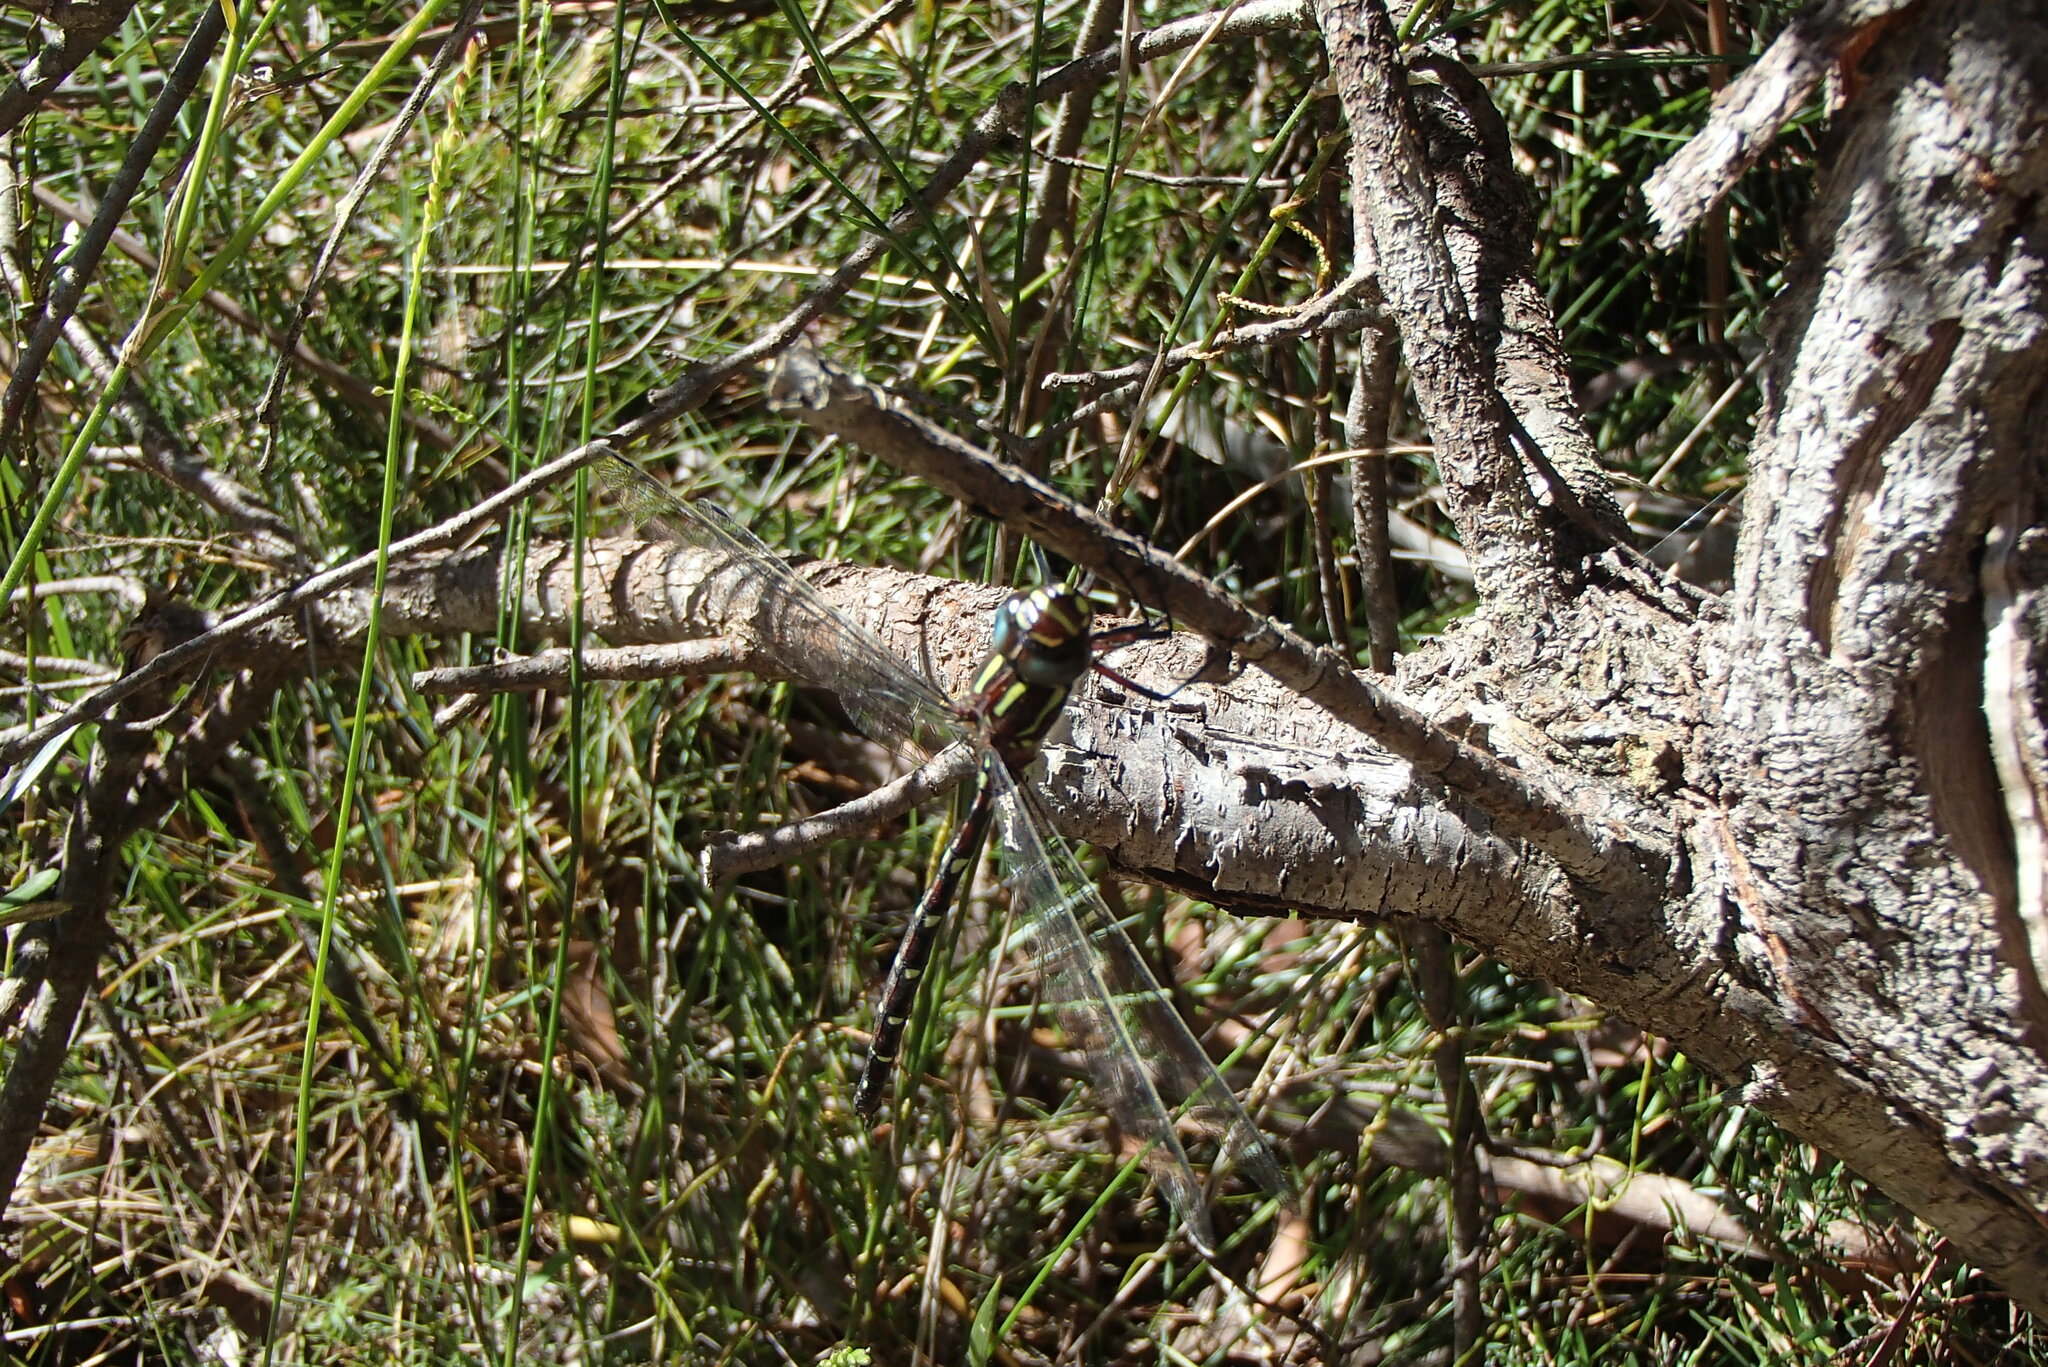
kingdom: Animalia
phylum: Arthropoda
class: Insecta
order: Odonata
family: Aeshnidae
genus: Austroaeschna
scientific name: Austroaeschna pulchra
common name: Forest darner
